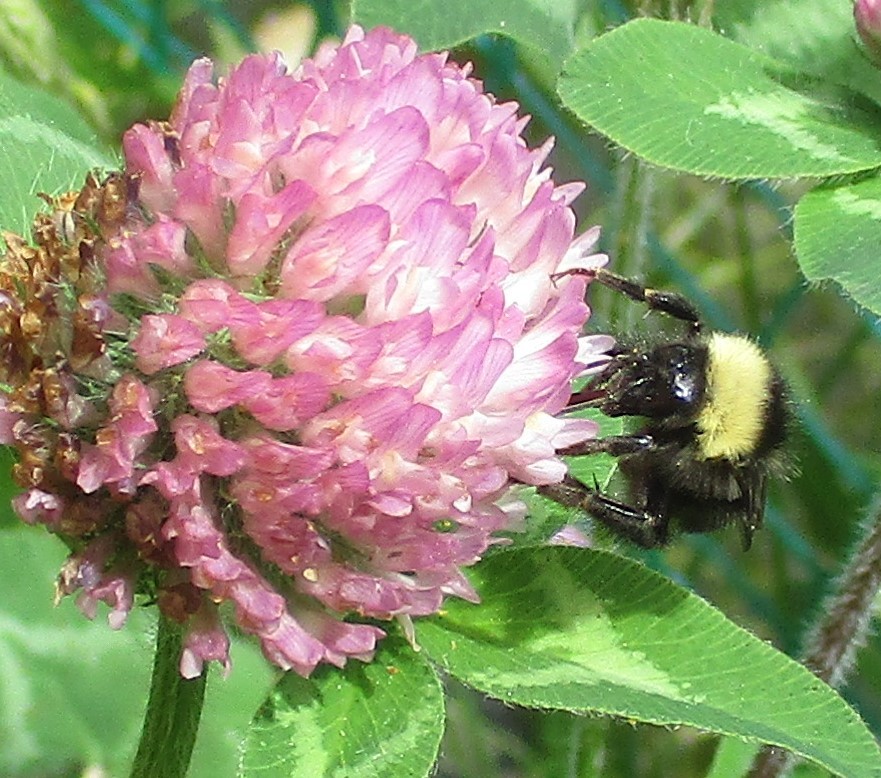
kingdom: Animalia
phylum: Arthropoda
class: Insecta
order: Hymenoptera
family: Apidae
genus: Bombus
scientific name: Bombus californicus
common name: California bumble bee
